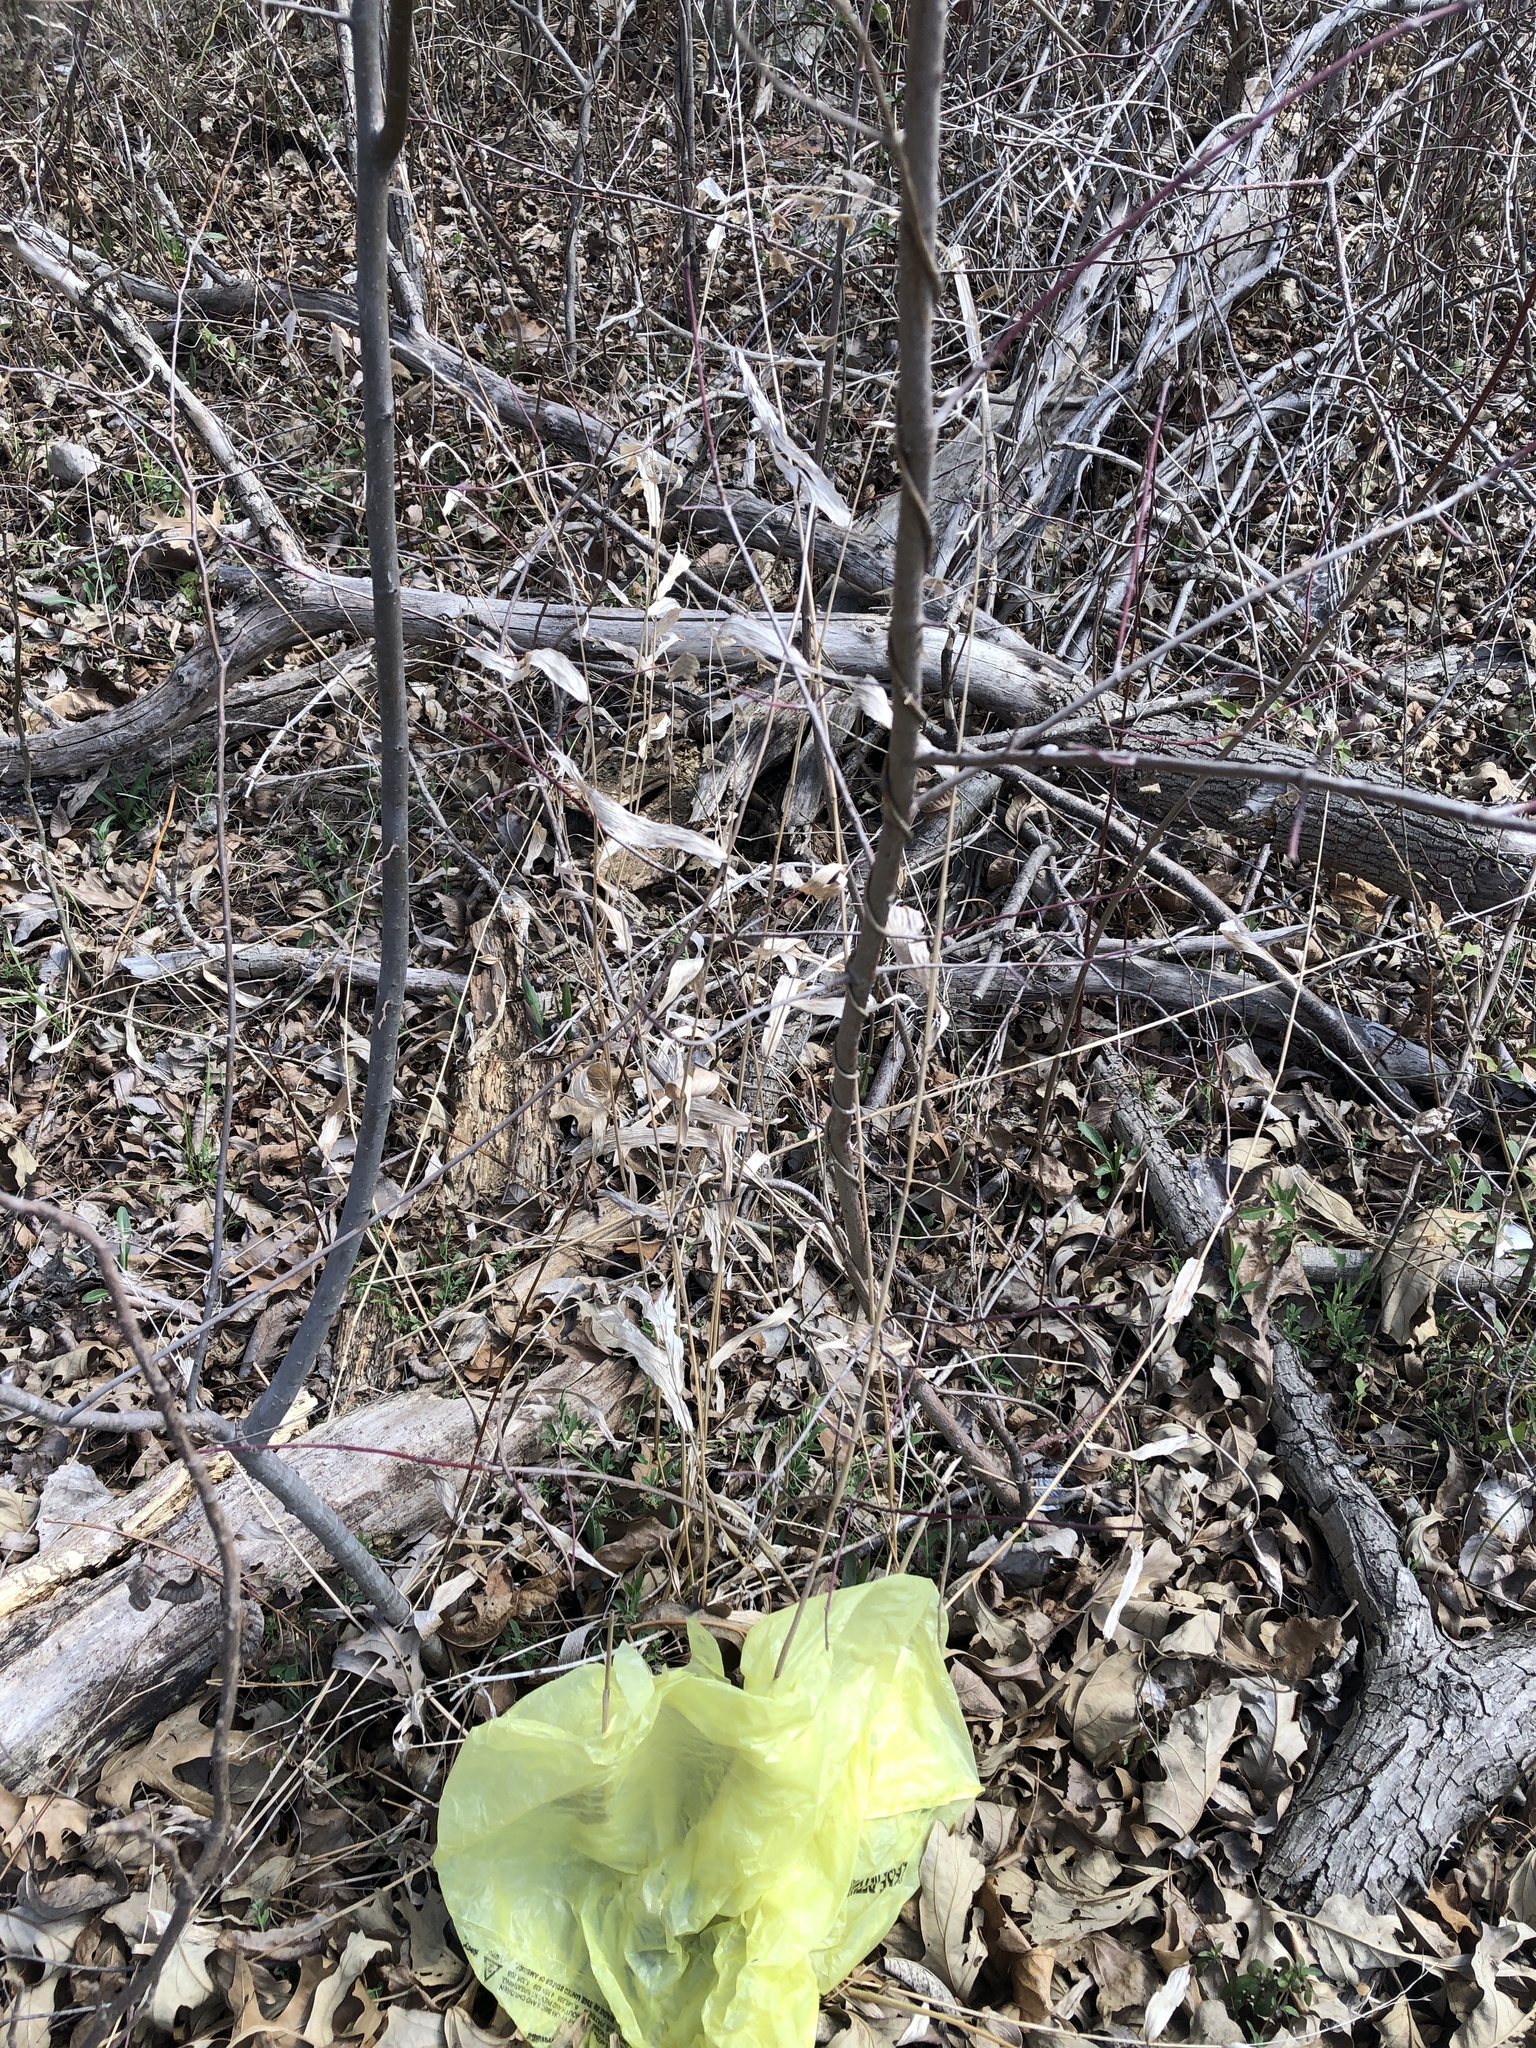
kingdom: Plantae
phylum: Tracheophyta
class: Liliopsida
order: Poales
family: Poaceae
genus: Chasmanthium
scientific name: Chasmanthium latifolium
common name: Broad-leaved chasmanthium
